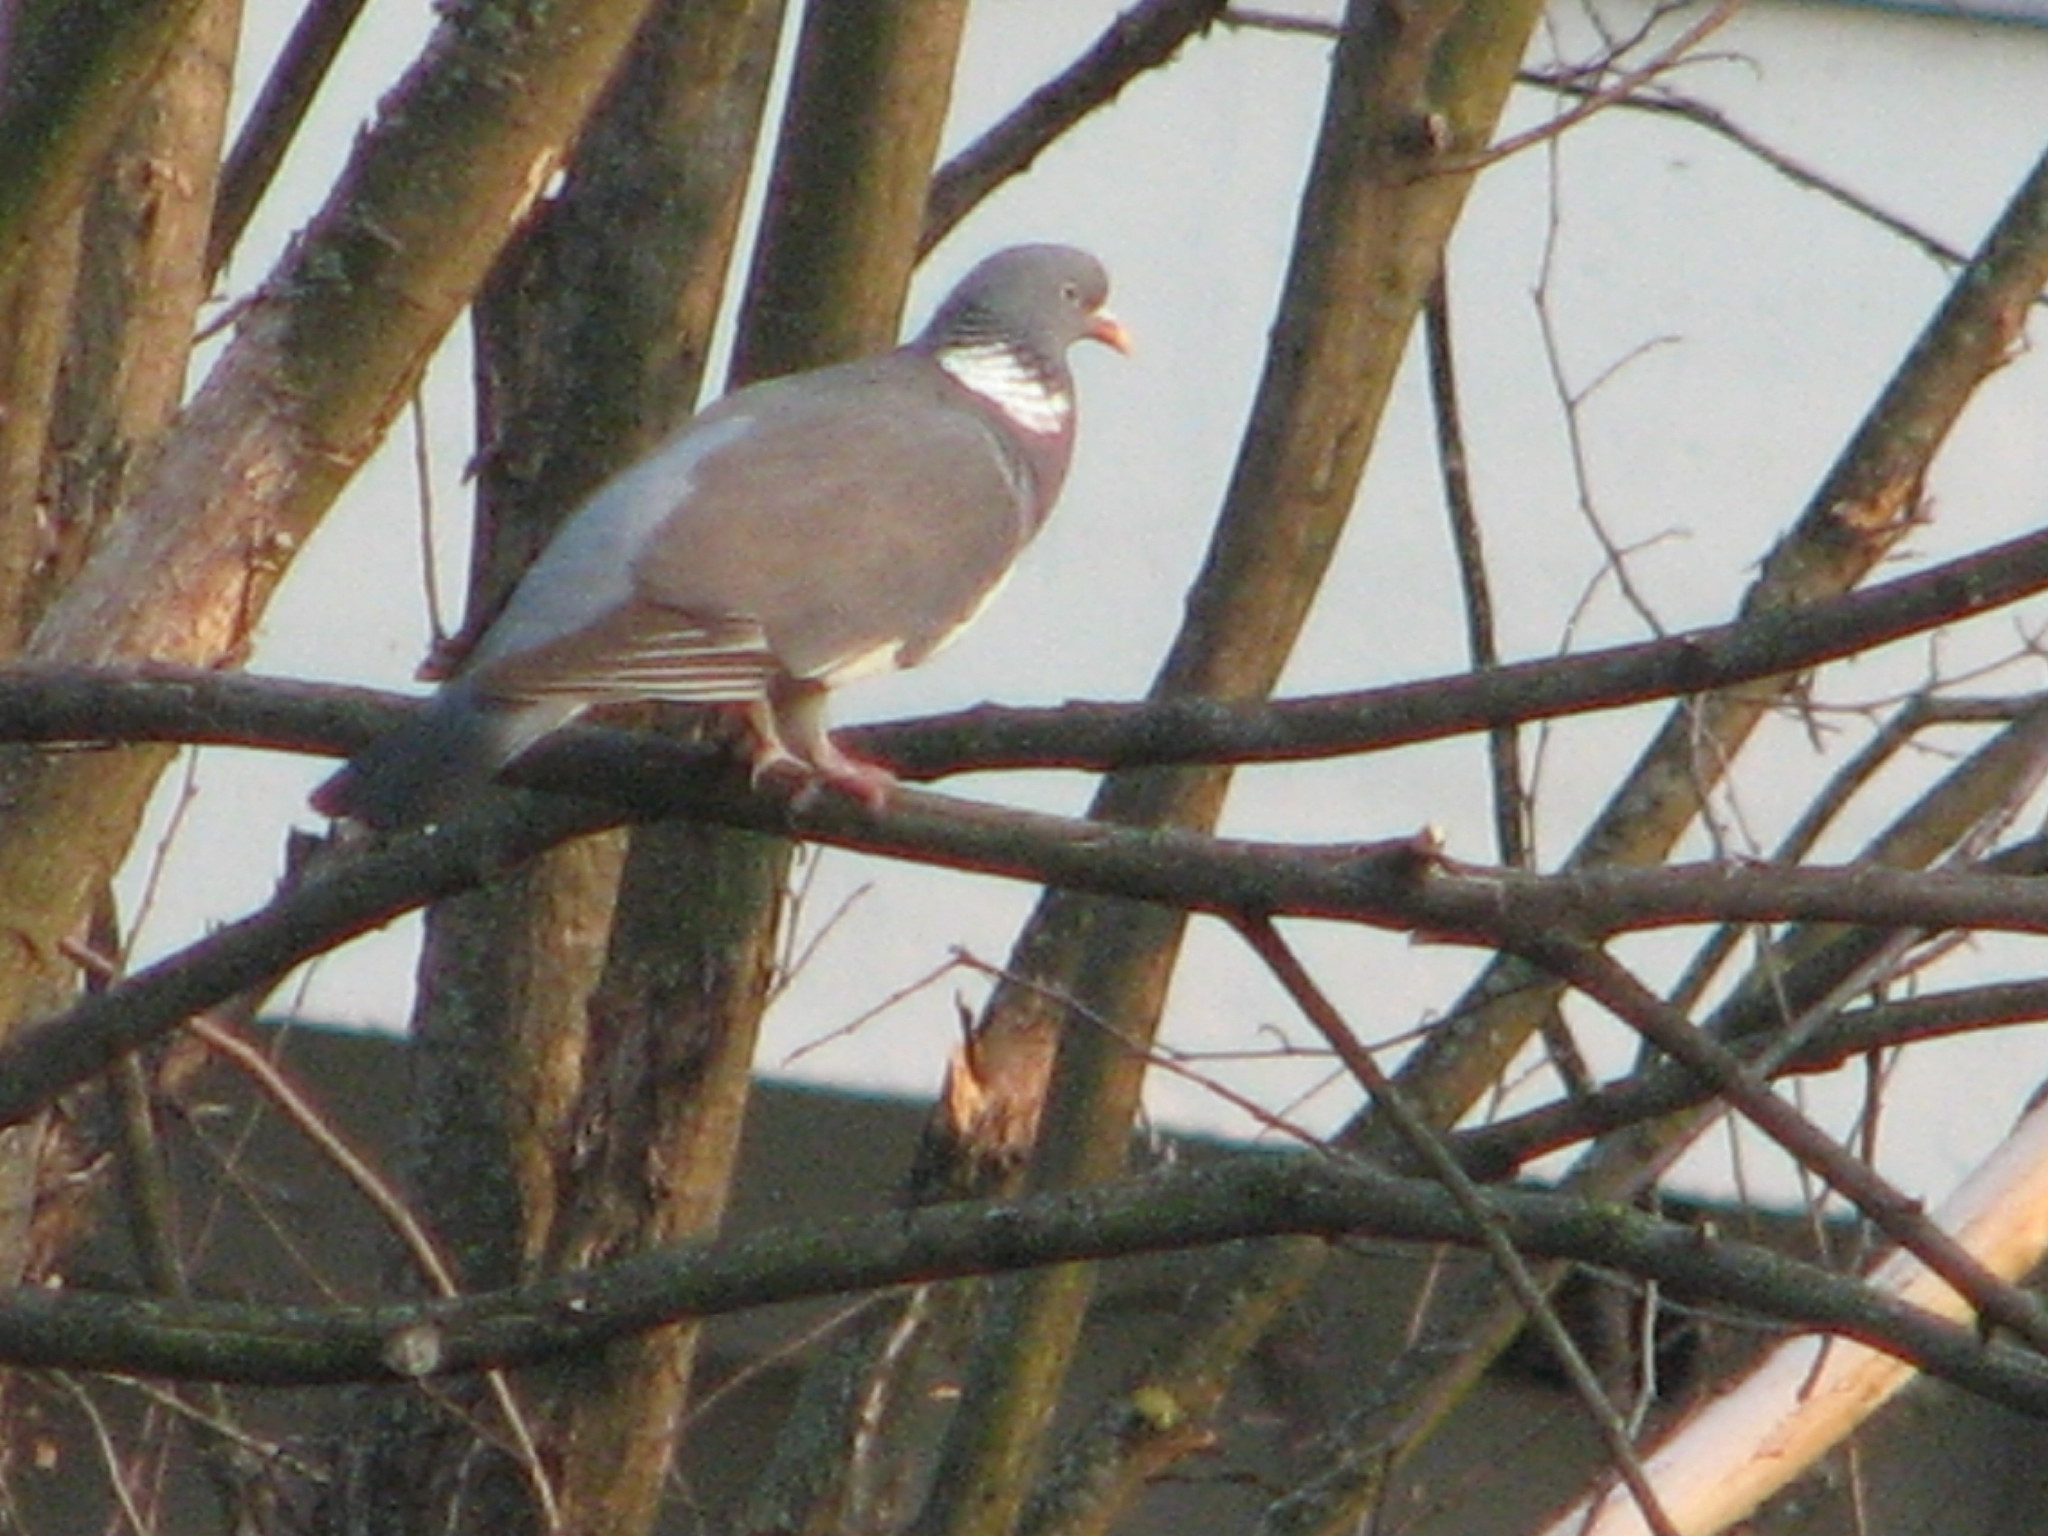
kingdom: Animalia
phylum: Chordata
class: Aves
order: Columbiformes
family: Columbidae
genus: Columba
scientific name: Columba palumbus
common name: Common wood pigeon
